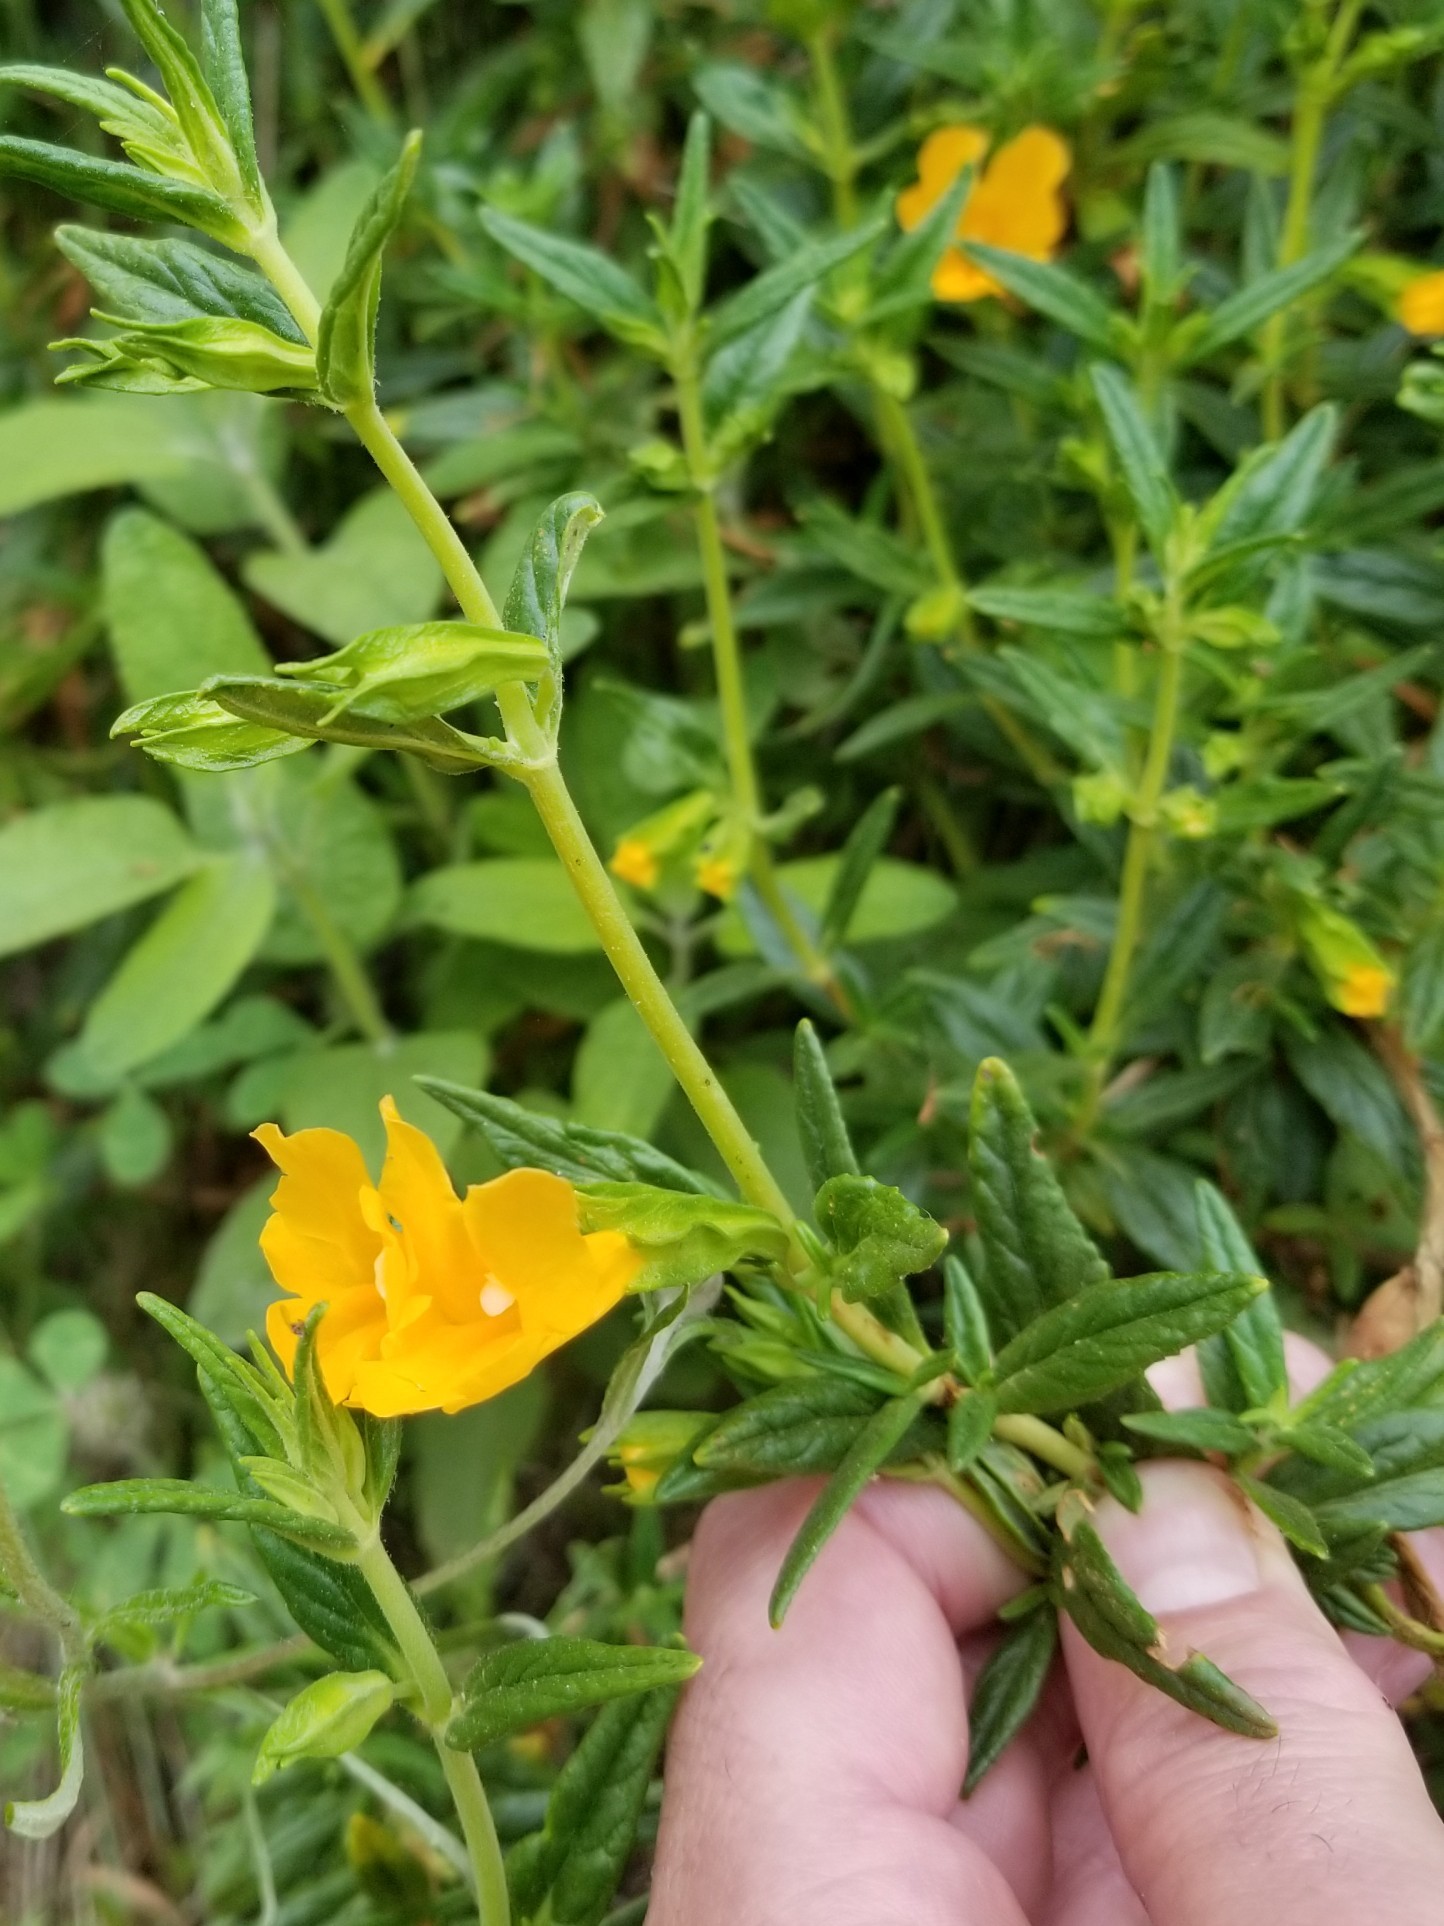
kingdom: Plantae
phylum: Tracheophyta
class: Magnoliopsida
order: Lamiales
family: Phrymaceae
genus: Diplacus
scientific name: Diplacus aurantiacus
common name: Bush monkey-flower
